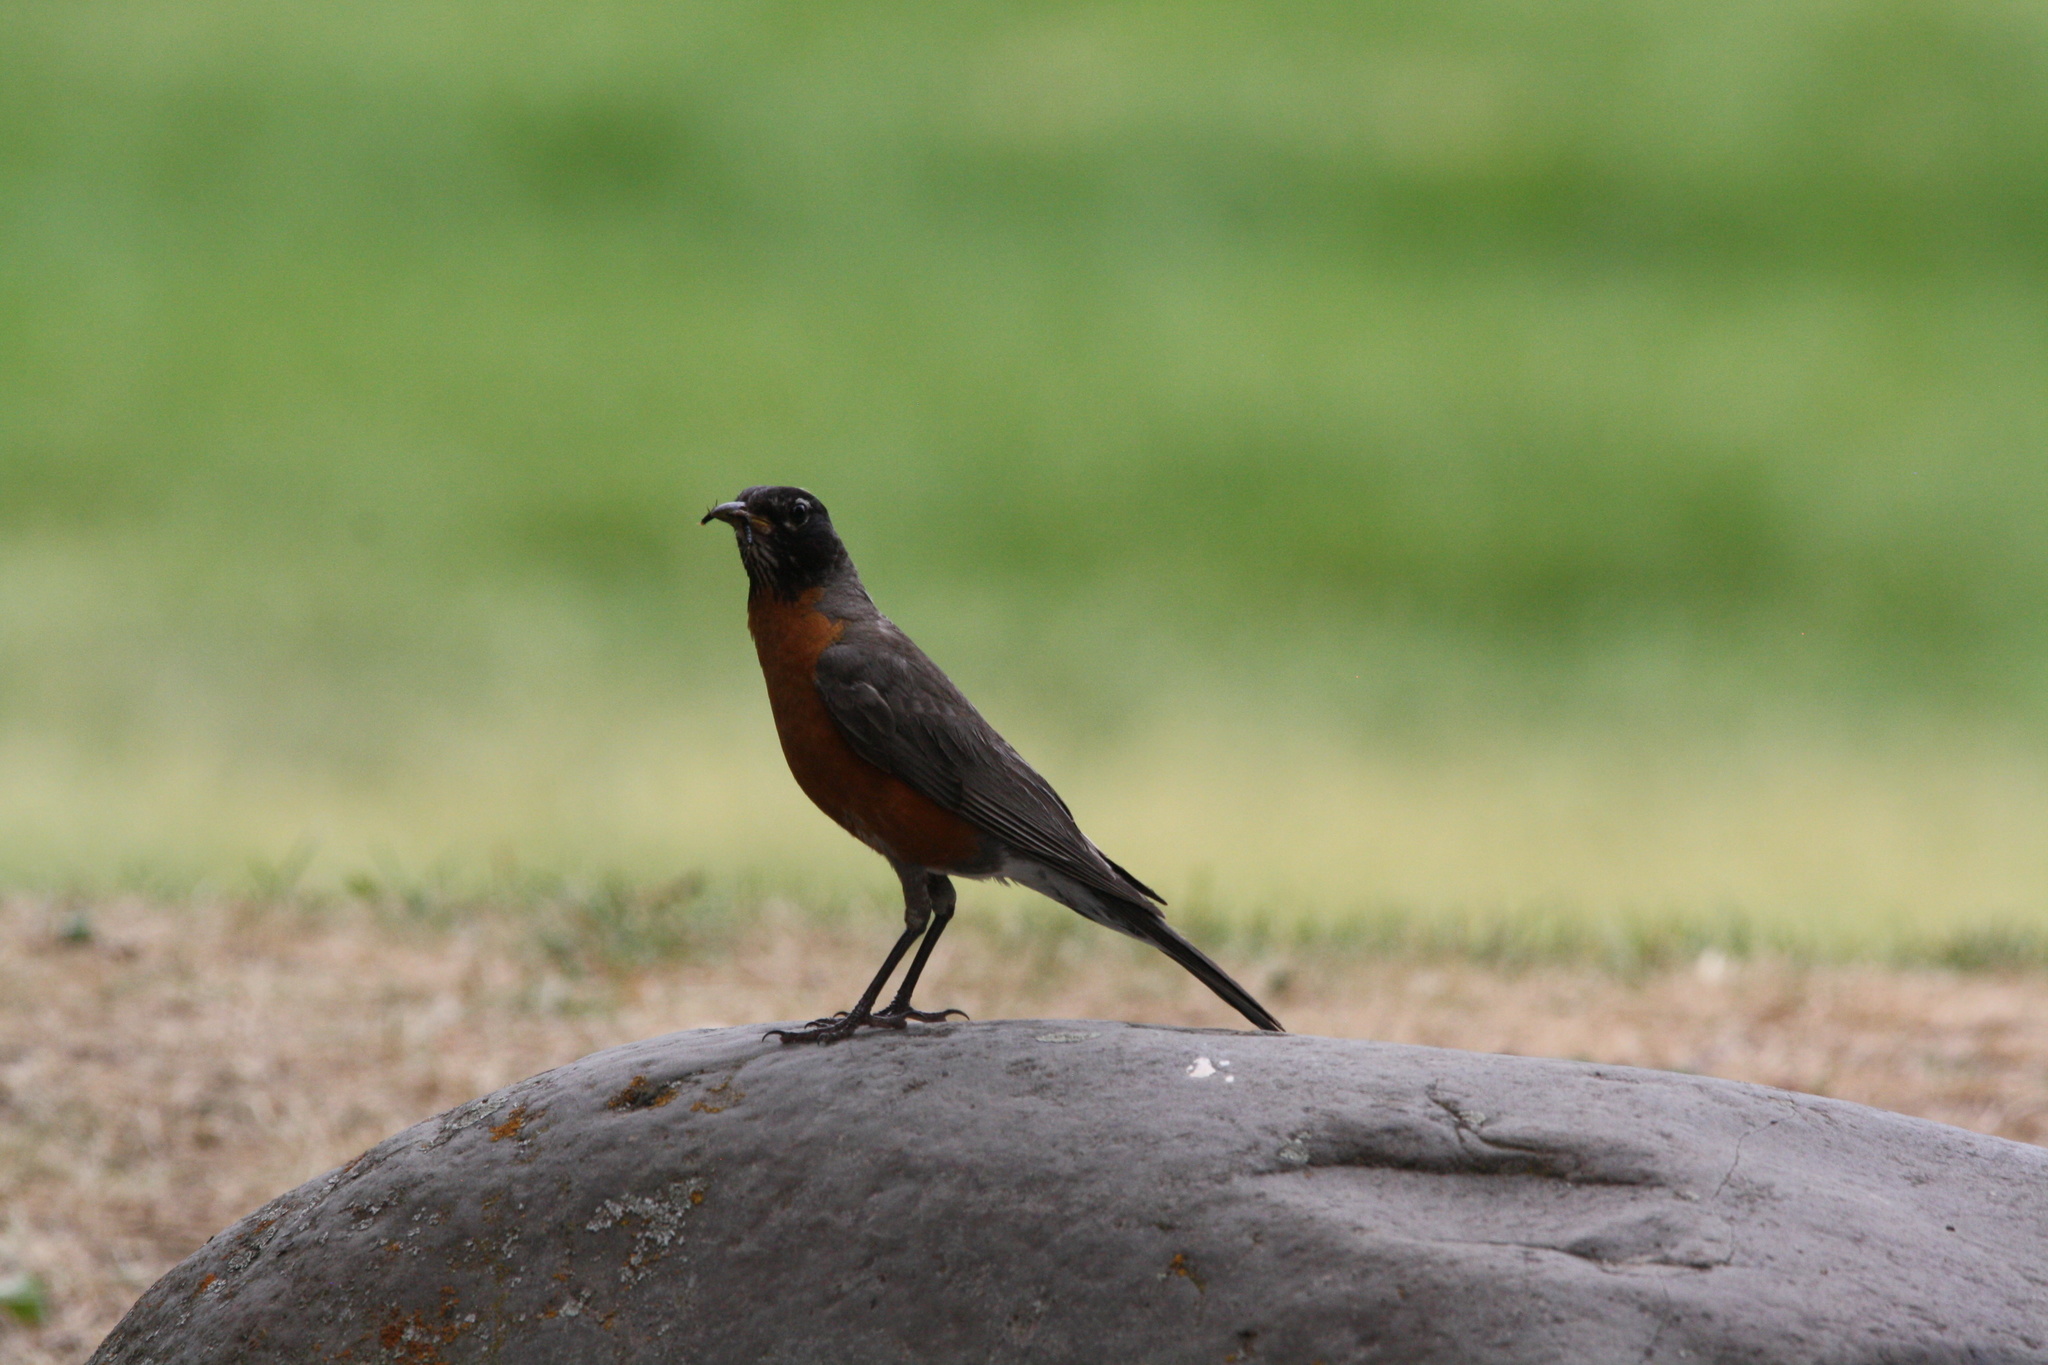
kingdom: Animalia
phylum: Chordata
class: Aves
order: Passeriformes
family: Turdidae
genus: Turdus
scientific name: Turdus migratorius
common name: American robin
